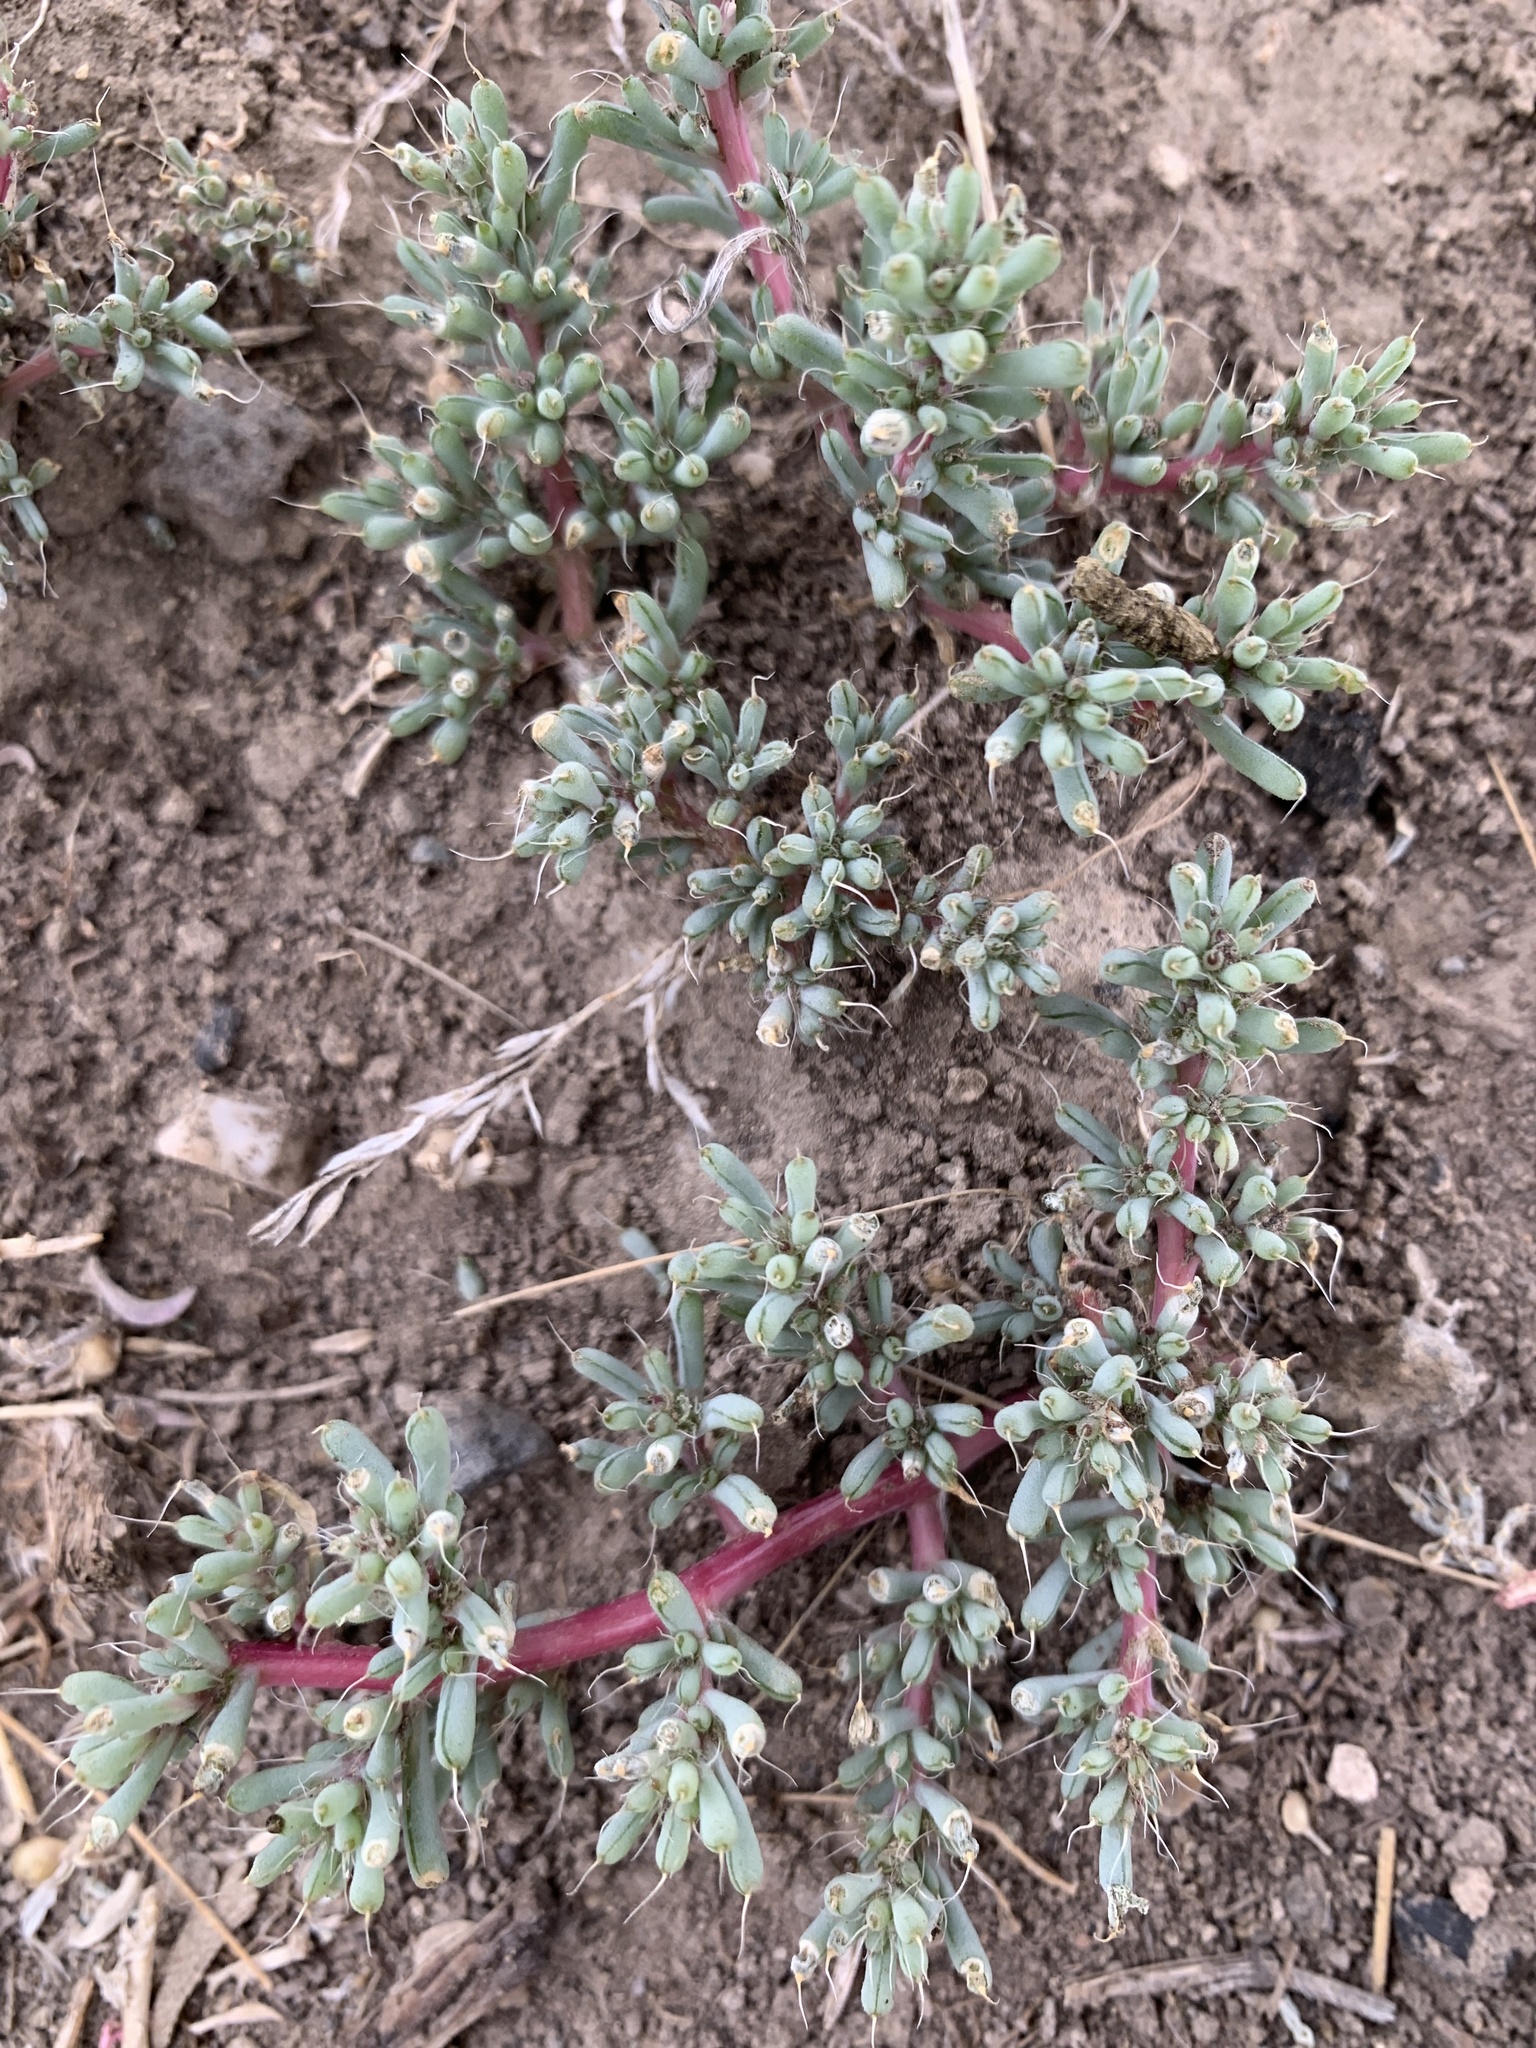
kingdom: Plantae
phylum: Tracheophyta
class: Magnoliopsida
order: Caryophyllales
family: Amaranthaceae
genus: Halogeton
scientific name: Halogeton glomeratus
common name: Saltlover
